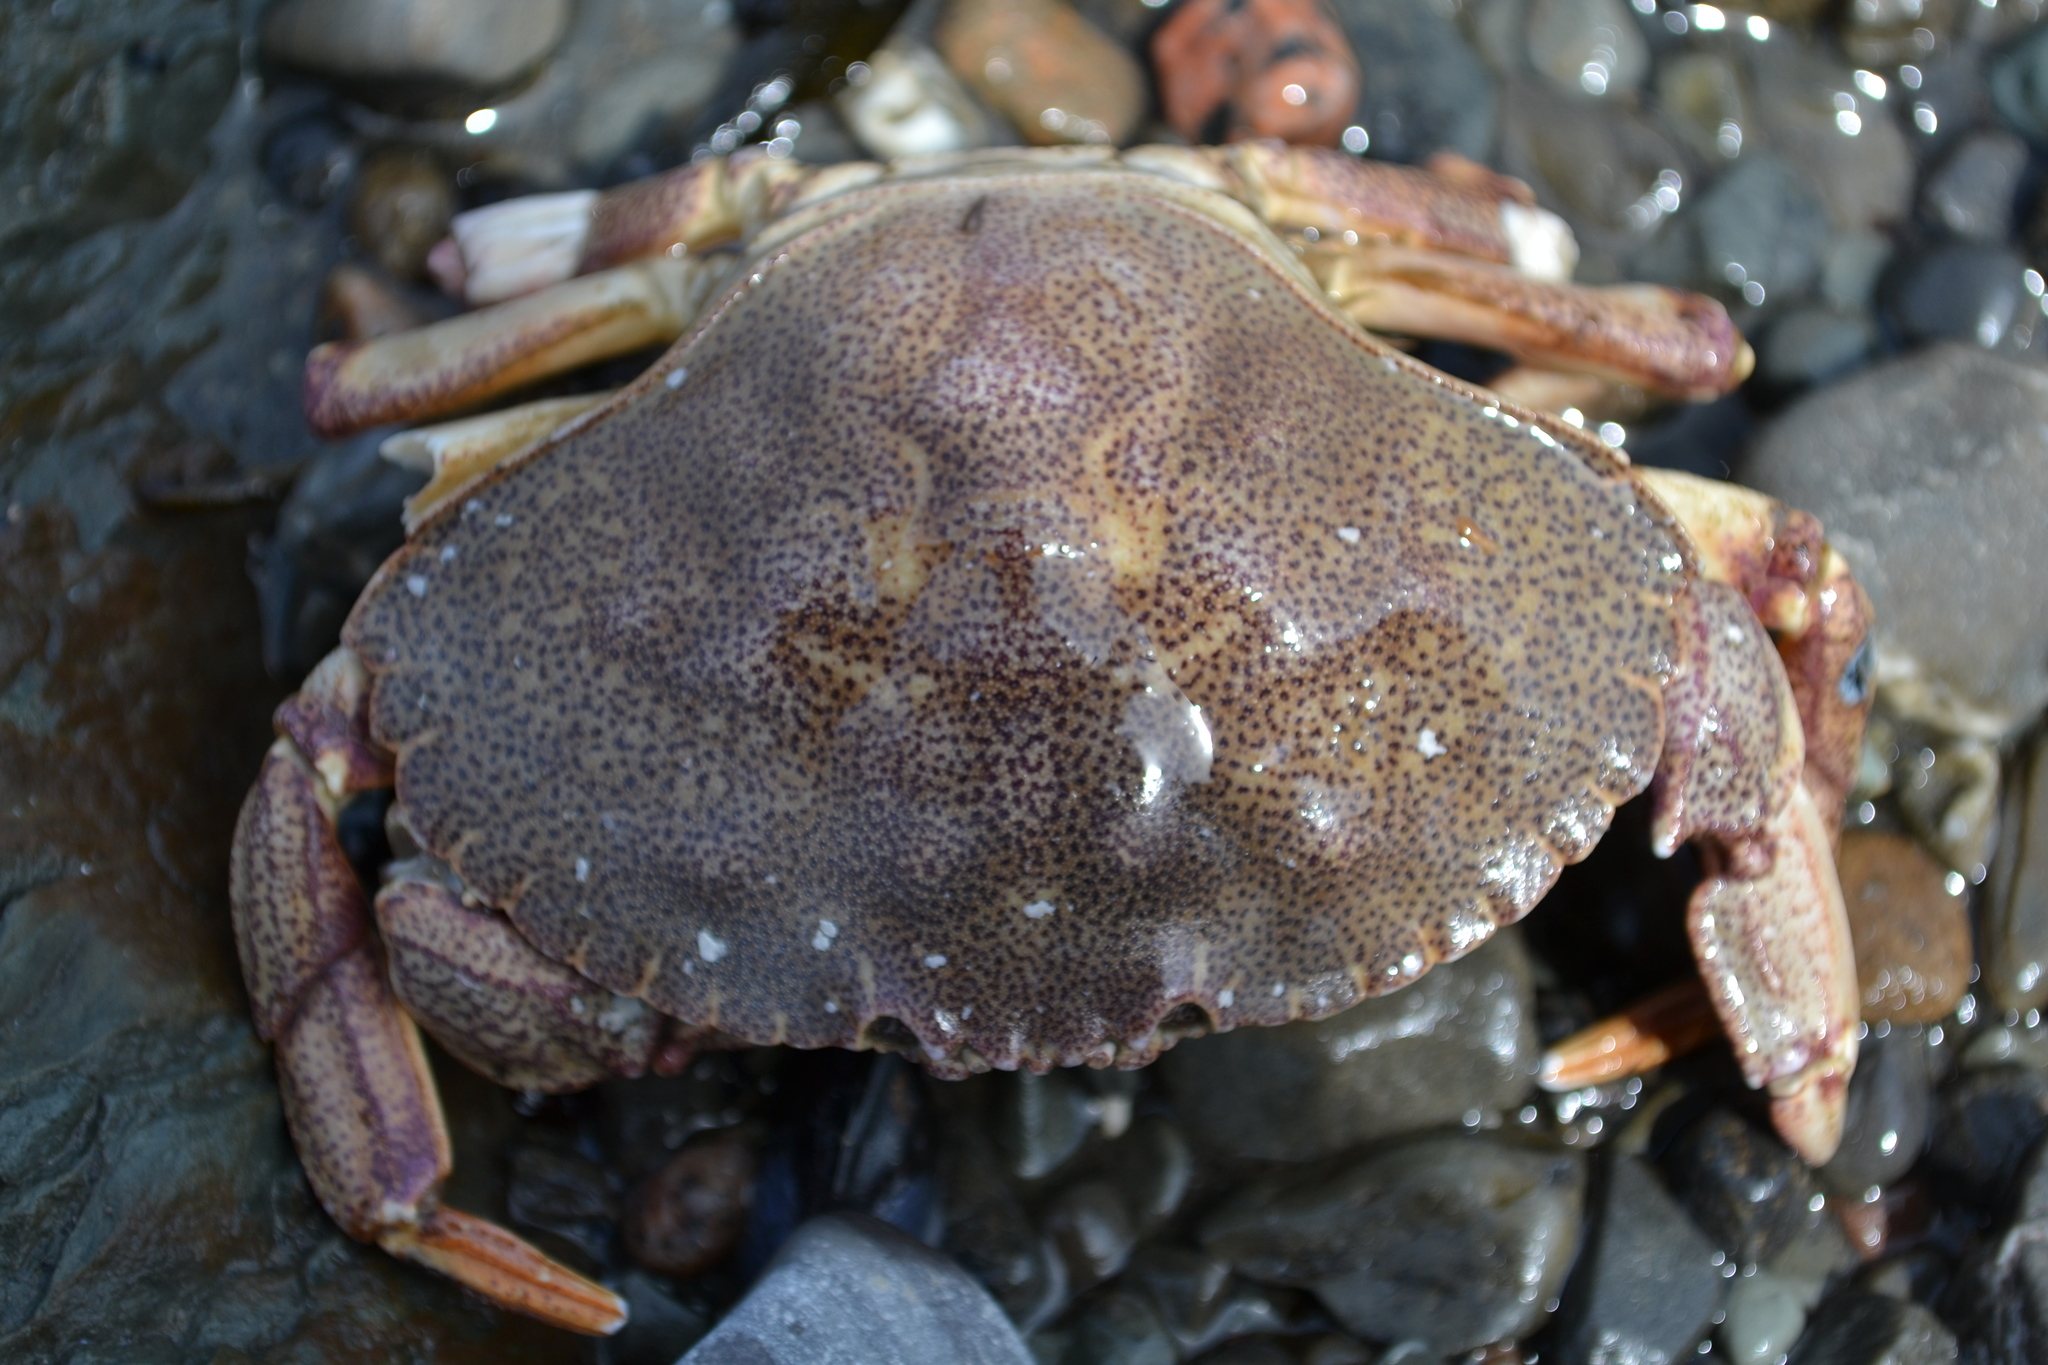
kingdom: Animalia
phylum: Arthropoda
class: Malacostraca
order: Decapoda
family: Cancridae
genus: Cancer
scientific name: Cancer irroratus
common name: Atlantic rock crab
